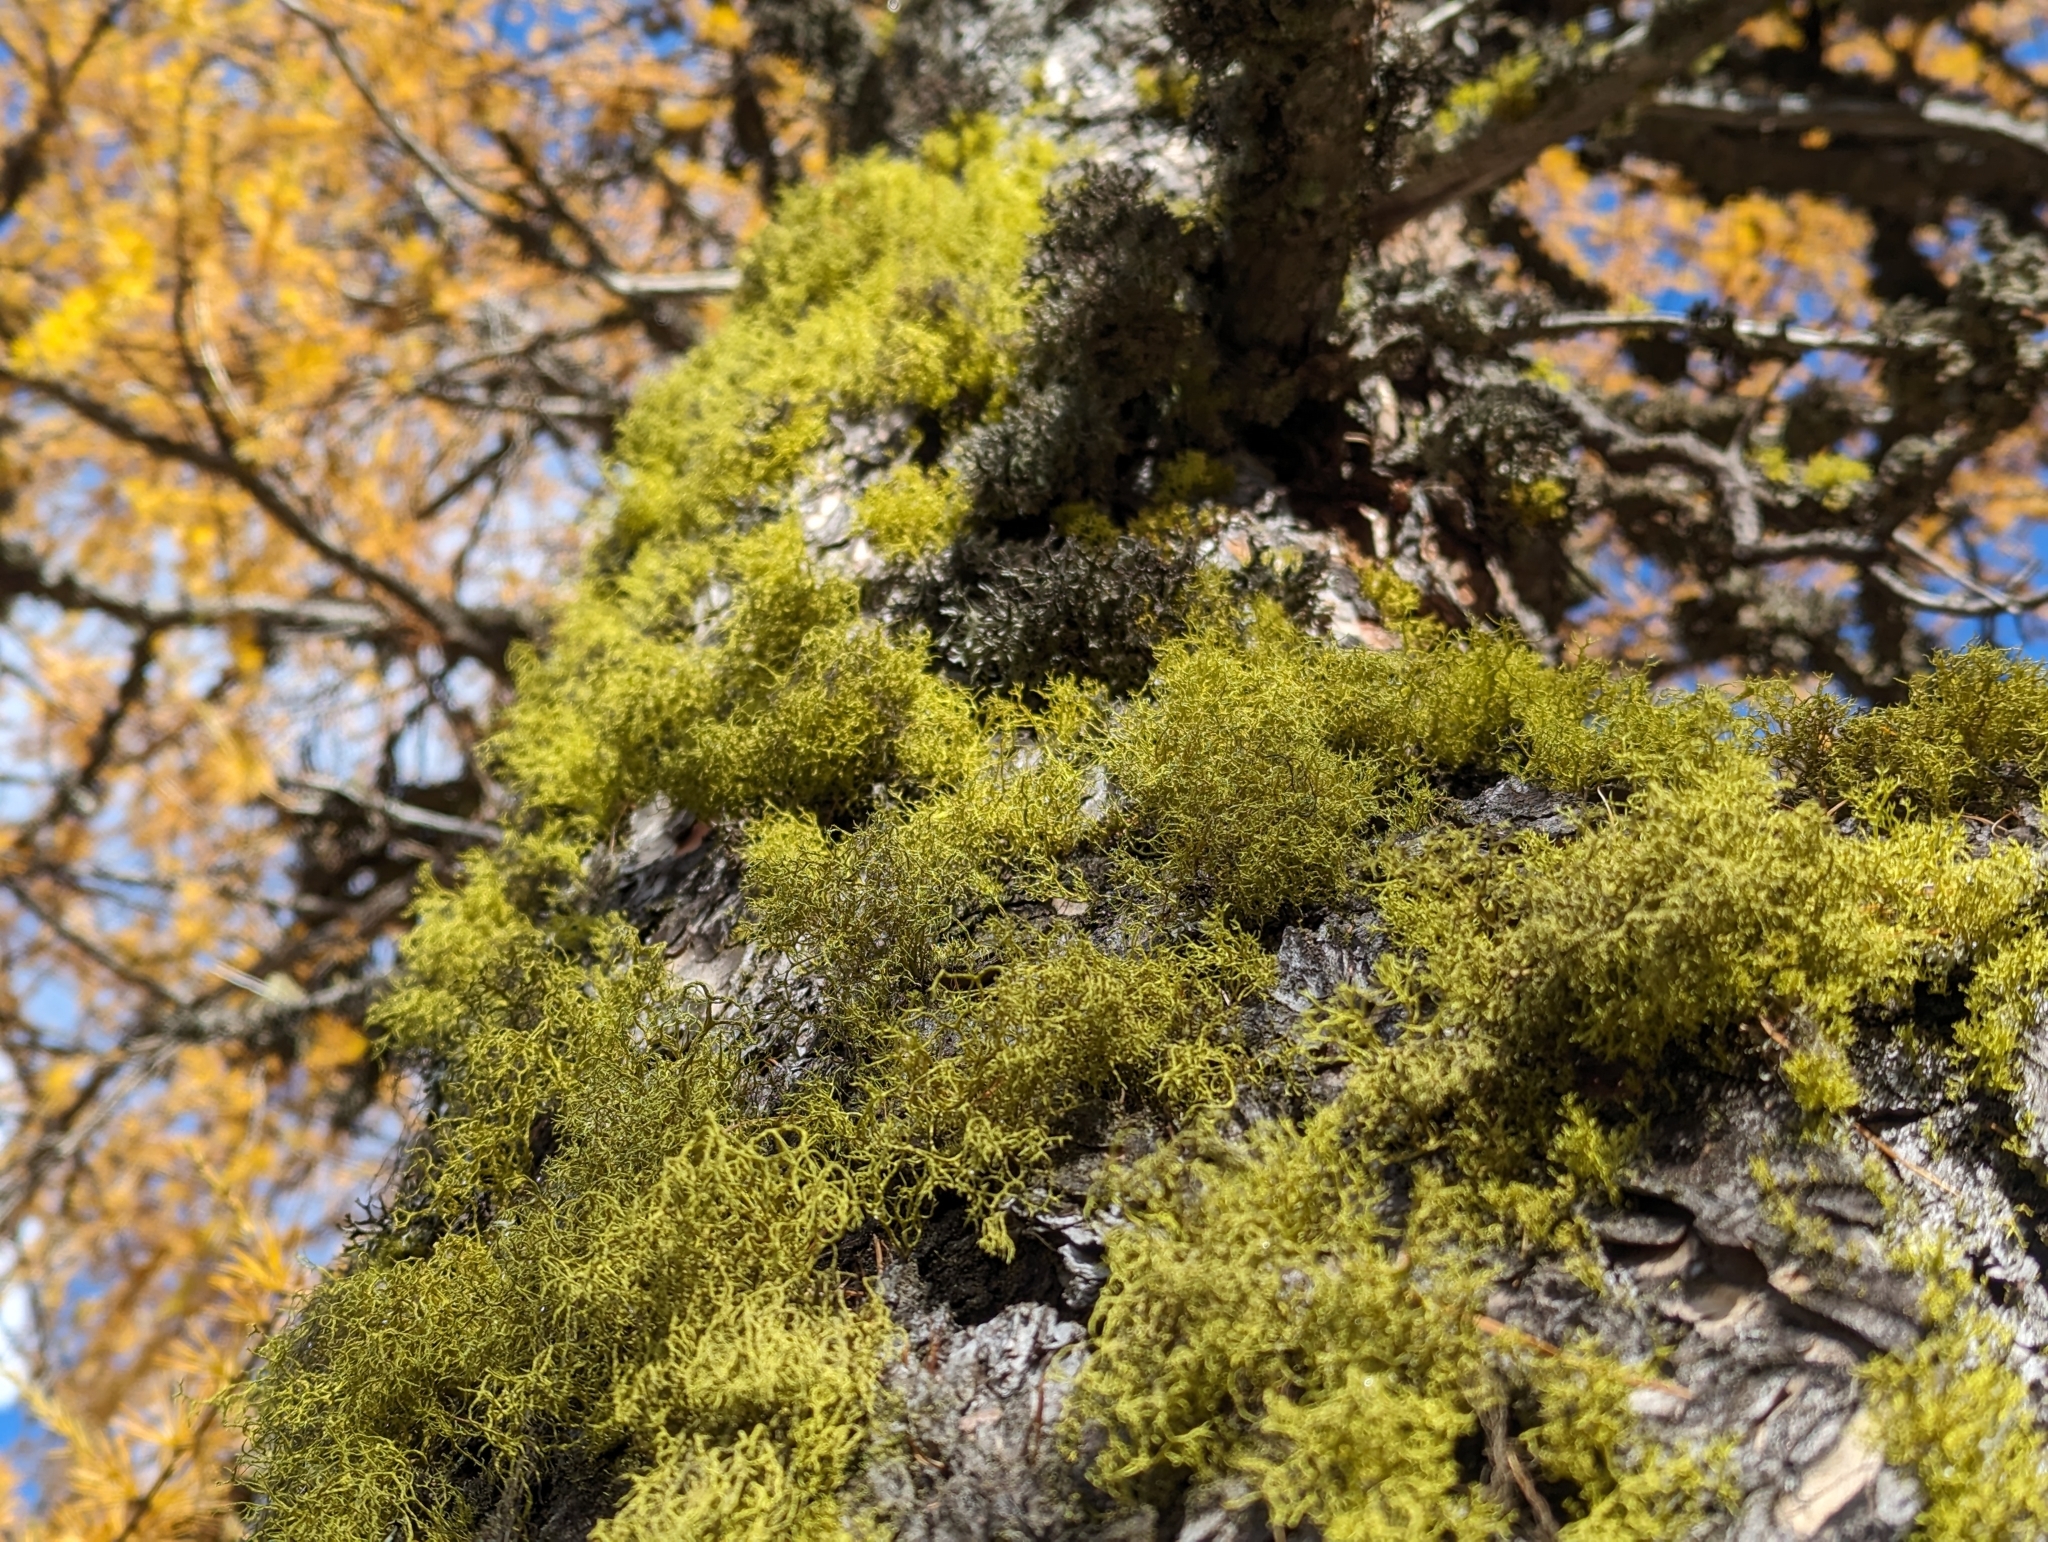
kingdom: Fungi
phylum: Ascomycota
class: Lecanoromycetes
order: Lecanorales
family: Parmeliaceae
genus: Letharia
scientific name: Letharia vulpina
